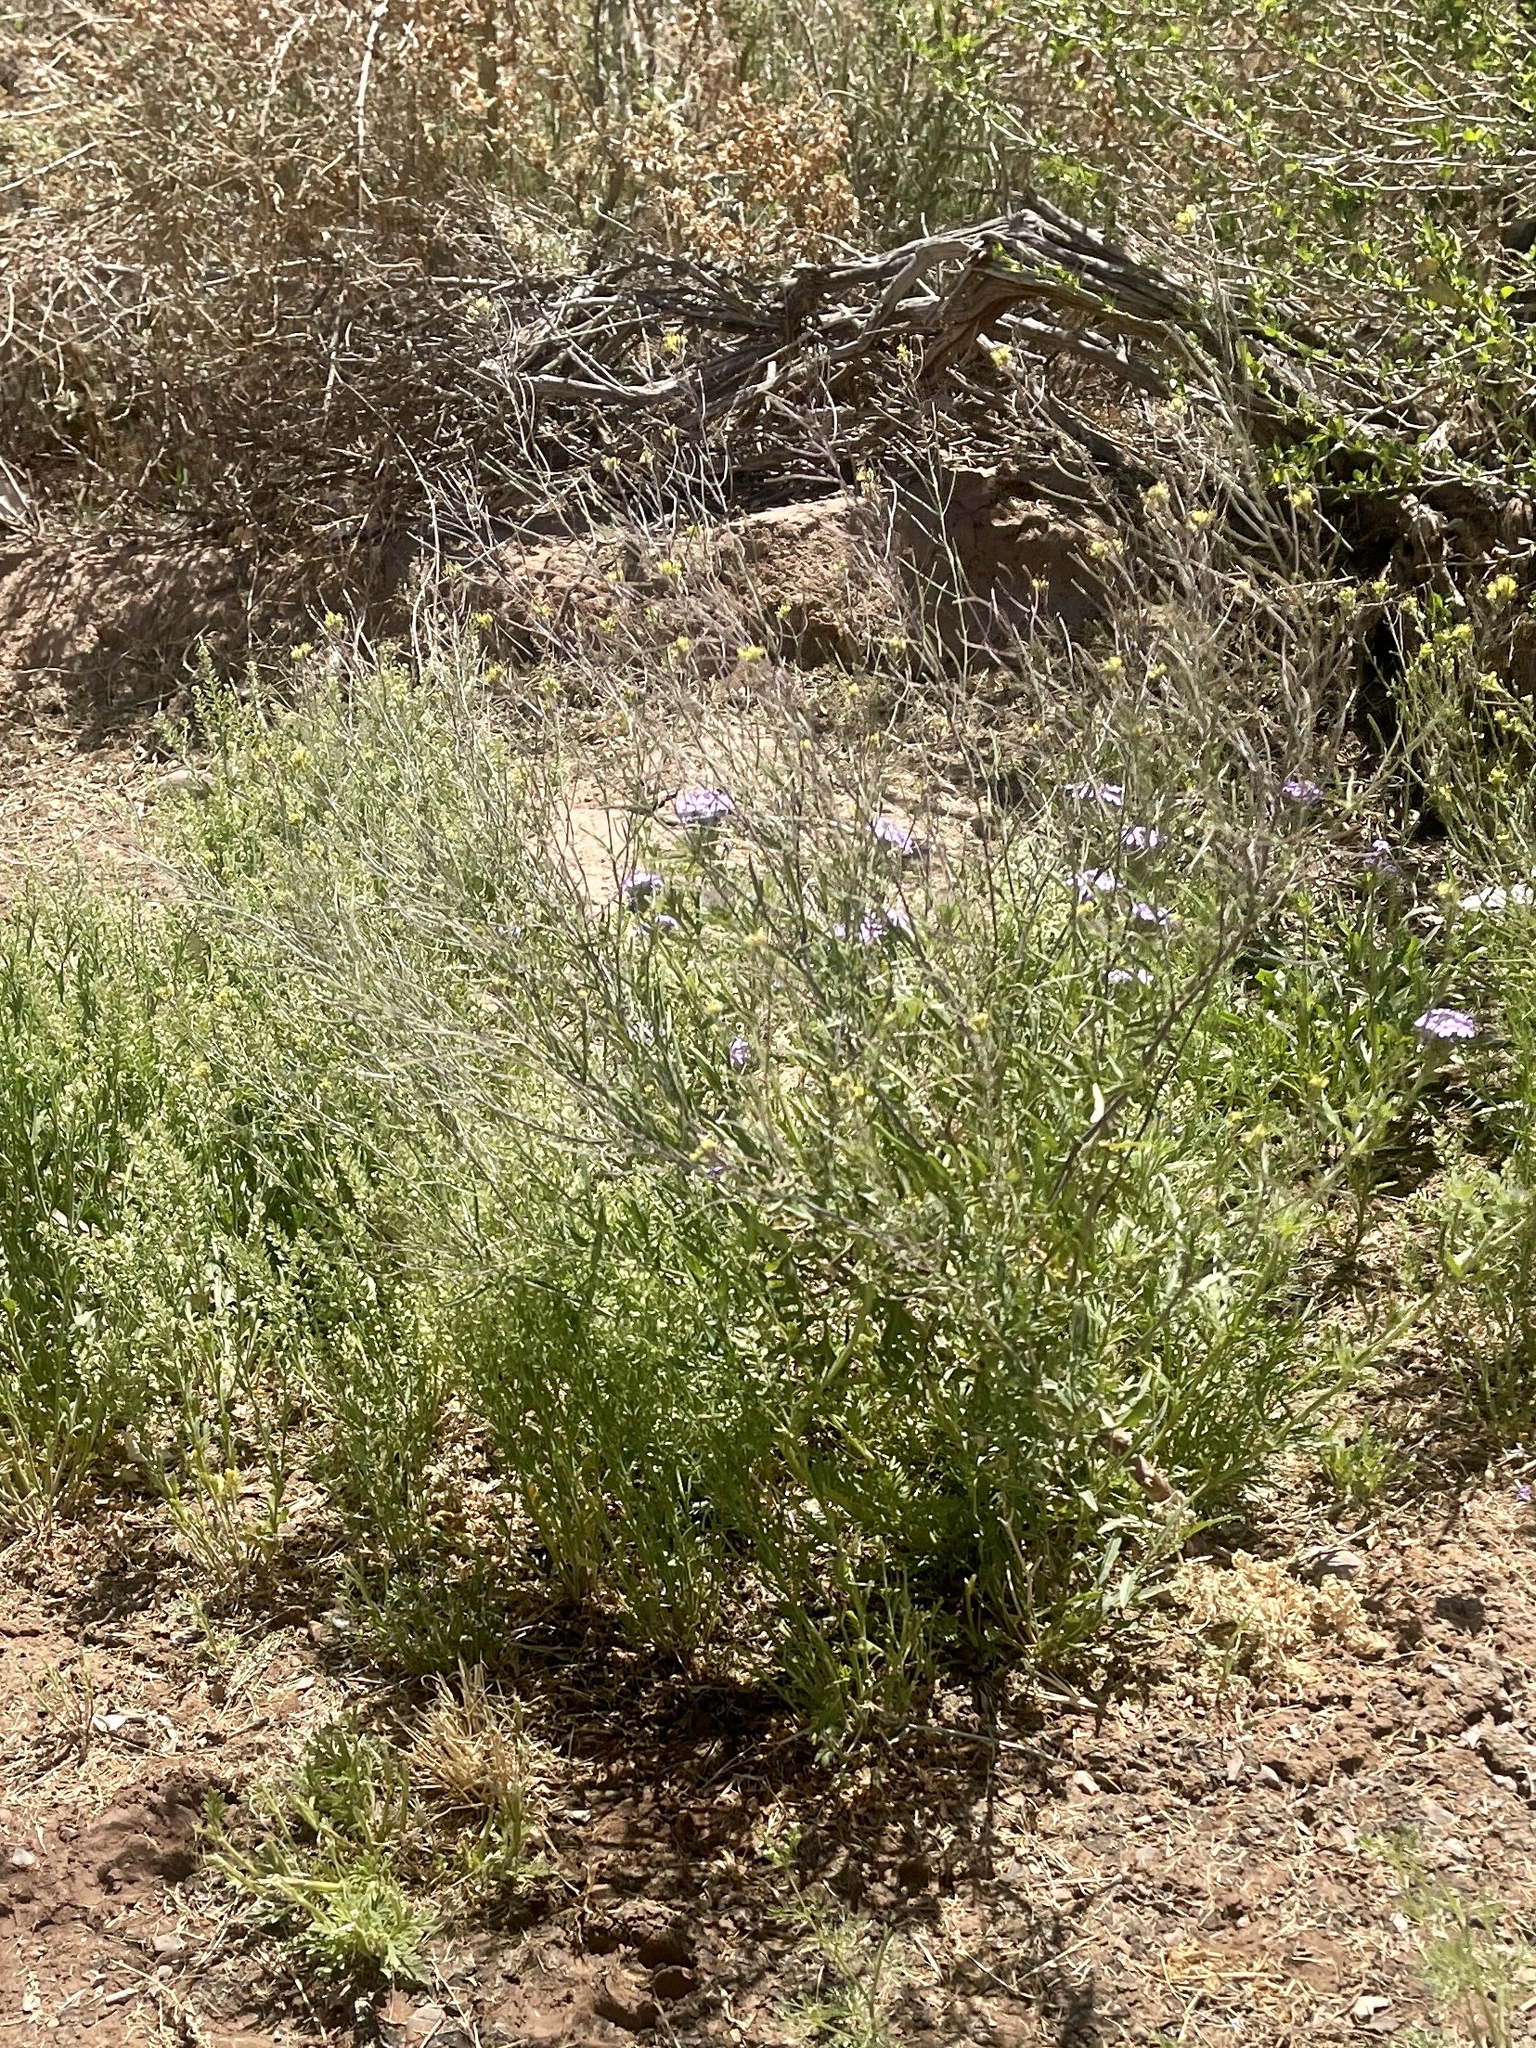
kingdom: Plantae
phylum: Tracheophyta
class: Magnoliopsida
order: Brassicales
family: Brassicaceae
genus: Sisymbrium
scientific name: Sisymbrium irio
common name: London rocket
